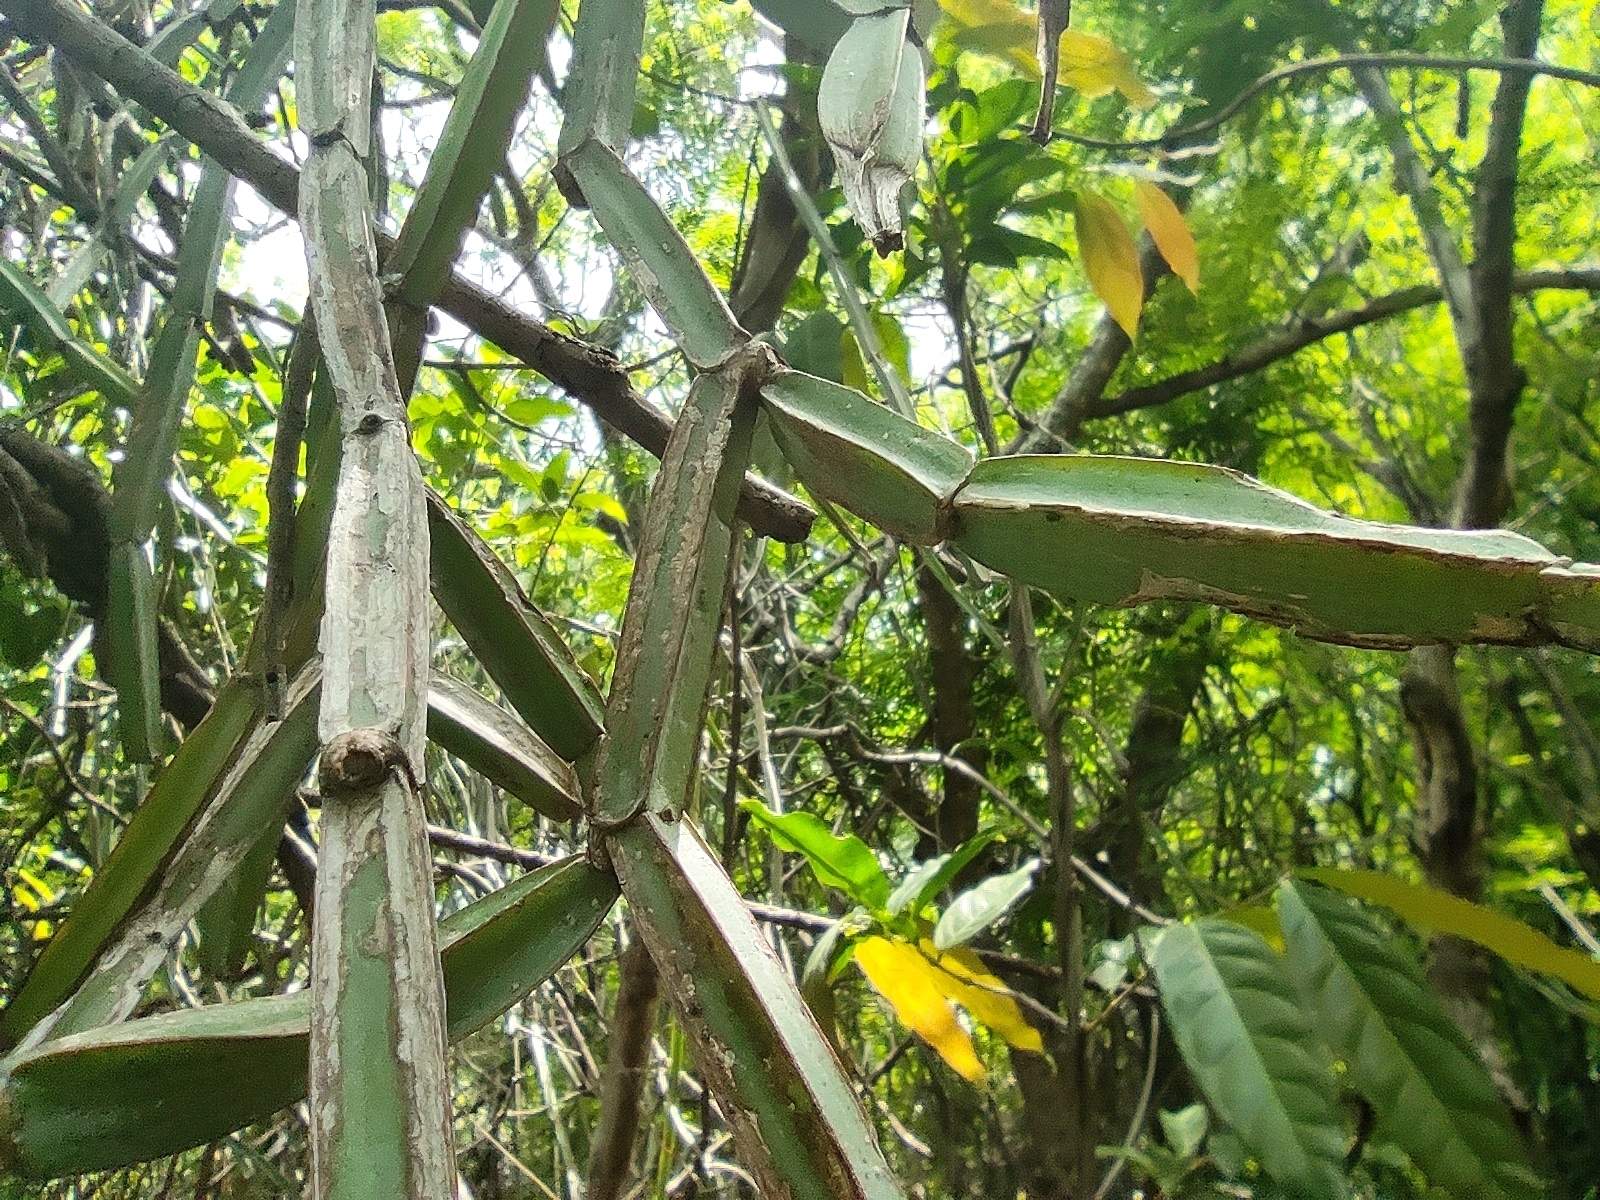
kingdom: Plantae
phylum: Tracheophyta
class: Magnoliopsida
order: Vitales
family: Vitaceae
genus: Cissus
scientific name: Cissus quadrangularis
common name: Veldt-grape
